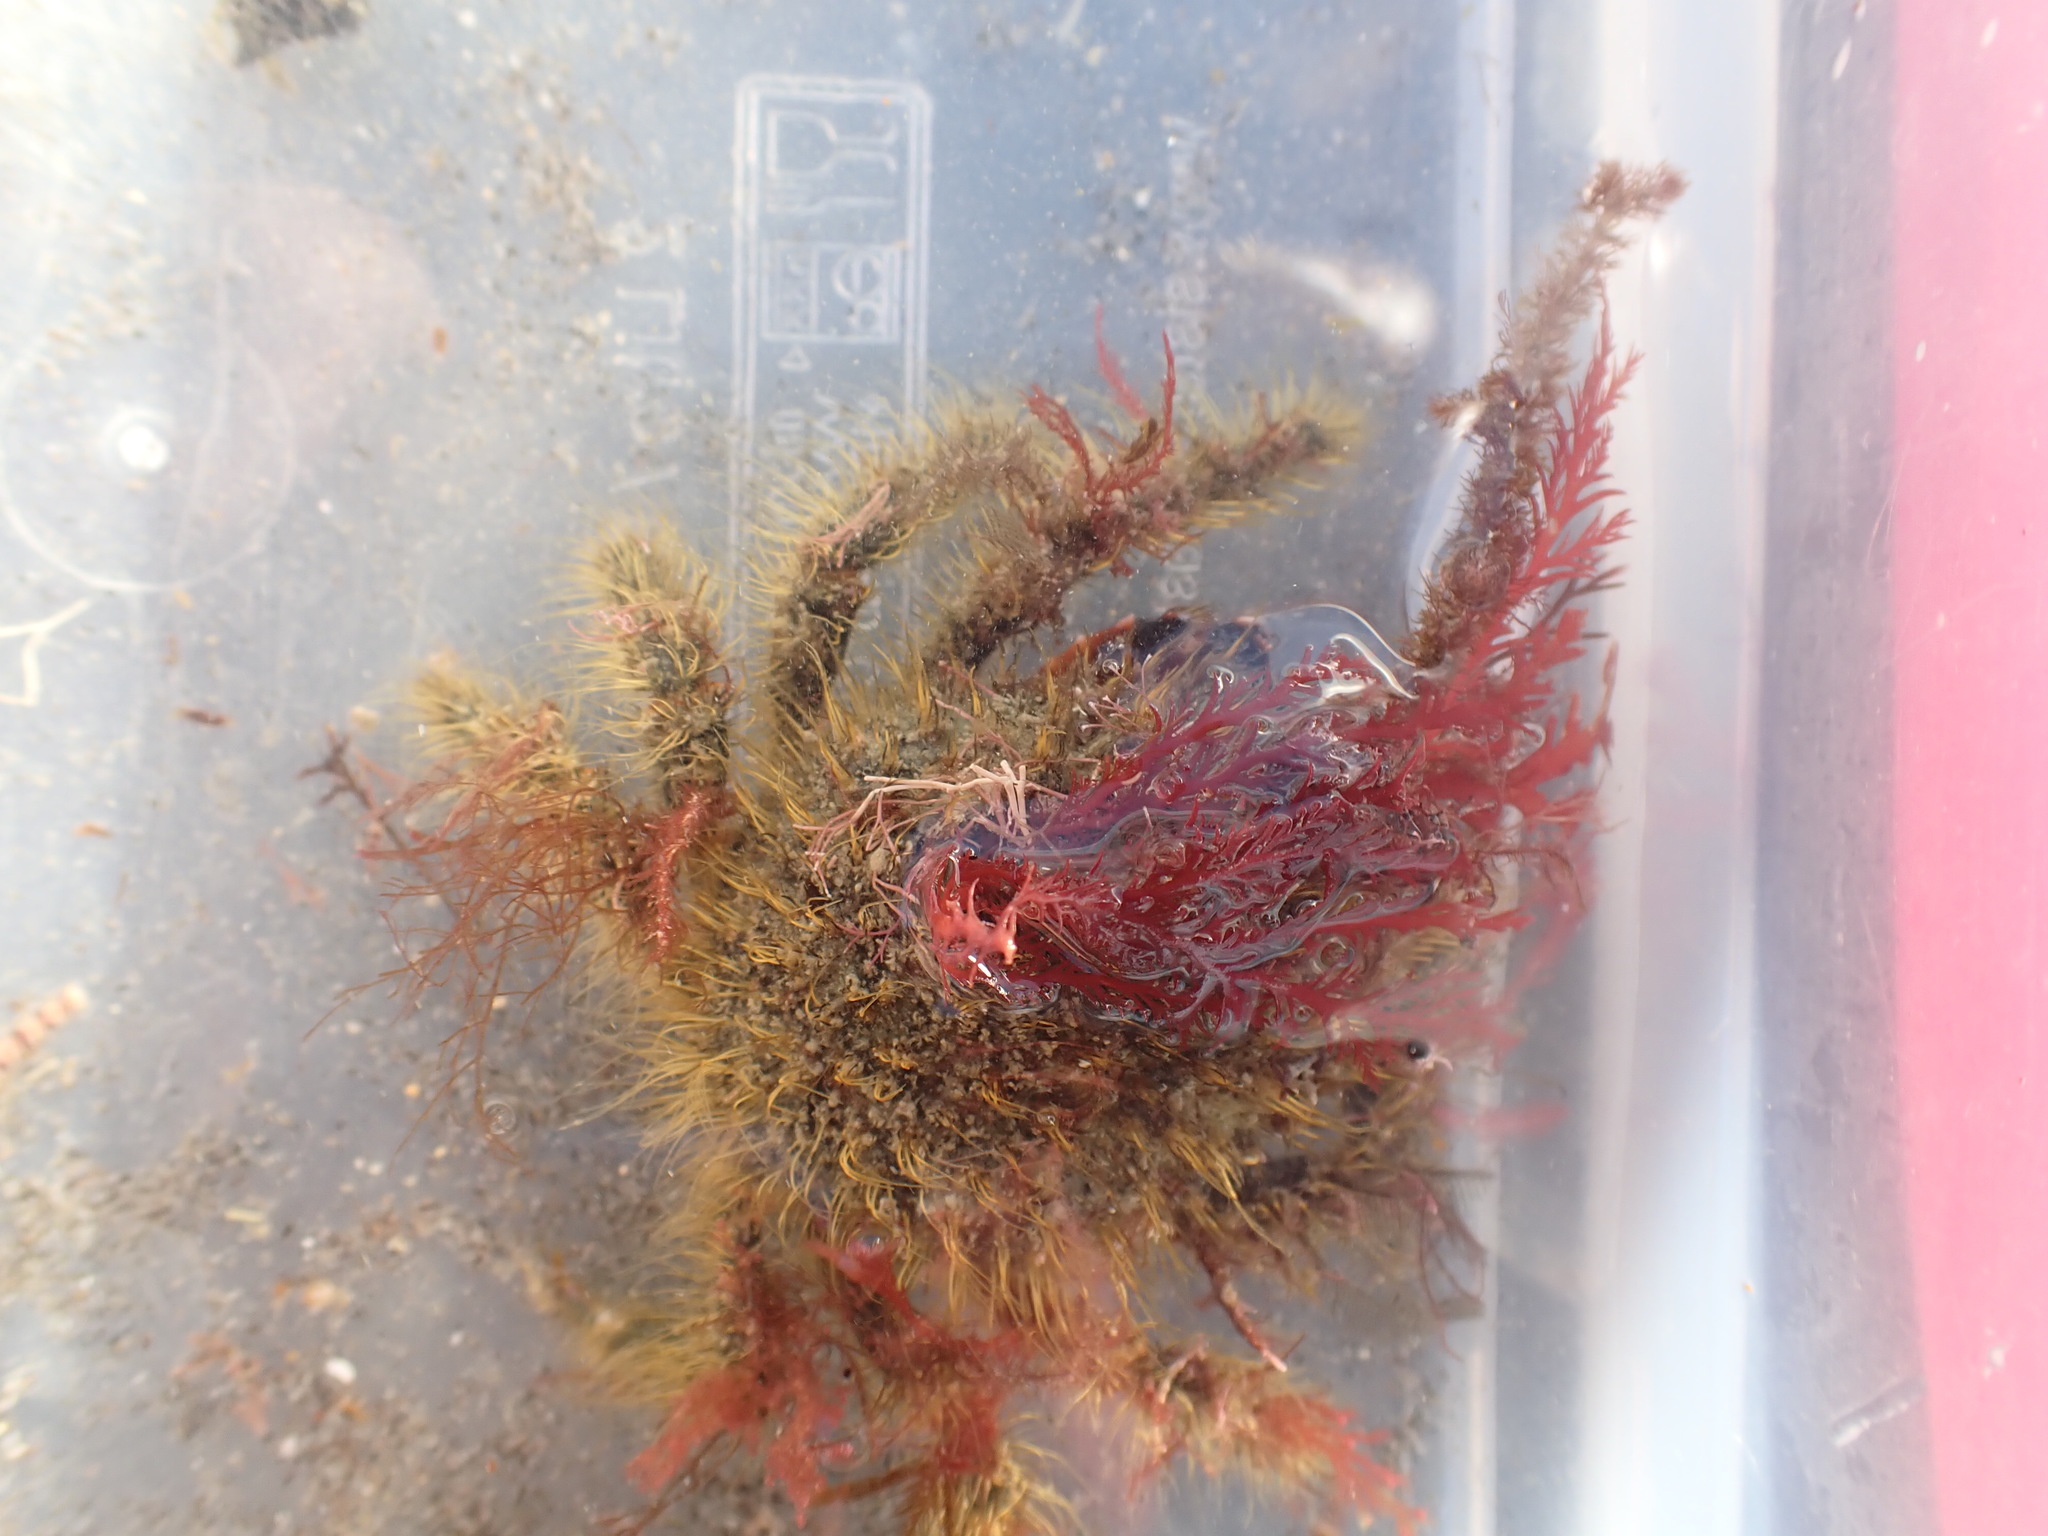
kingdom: Animalia
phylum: Arthropoda
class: Malacostraca
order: Decapoda
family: Majidae
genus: Notomithrax
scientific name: Notomithrax ursus
